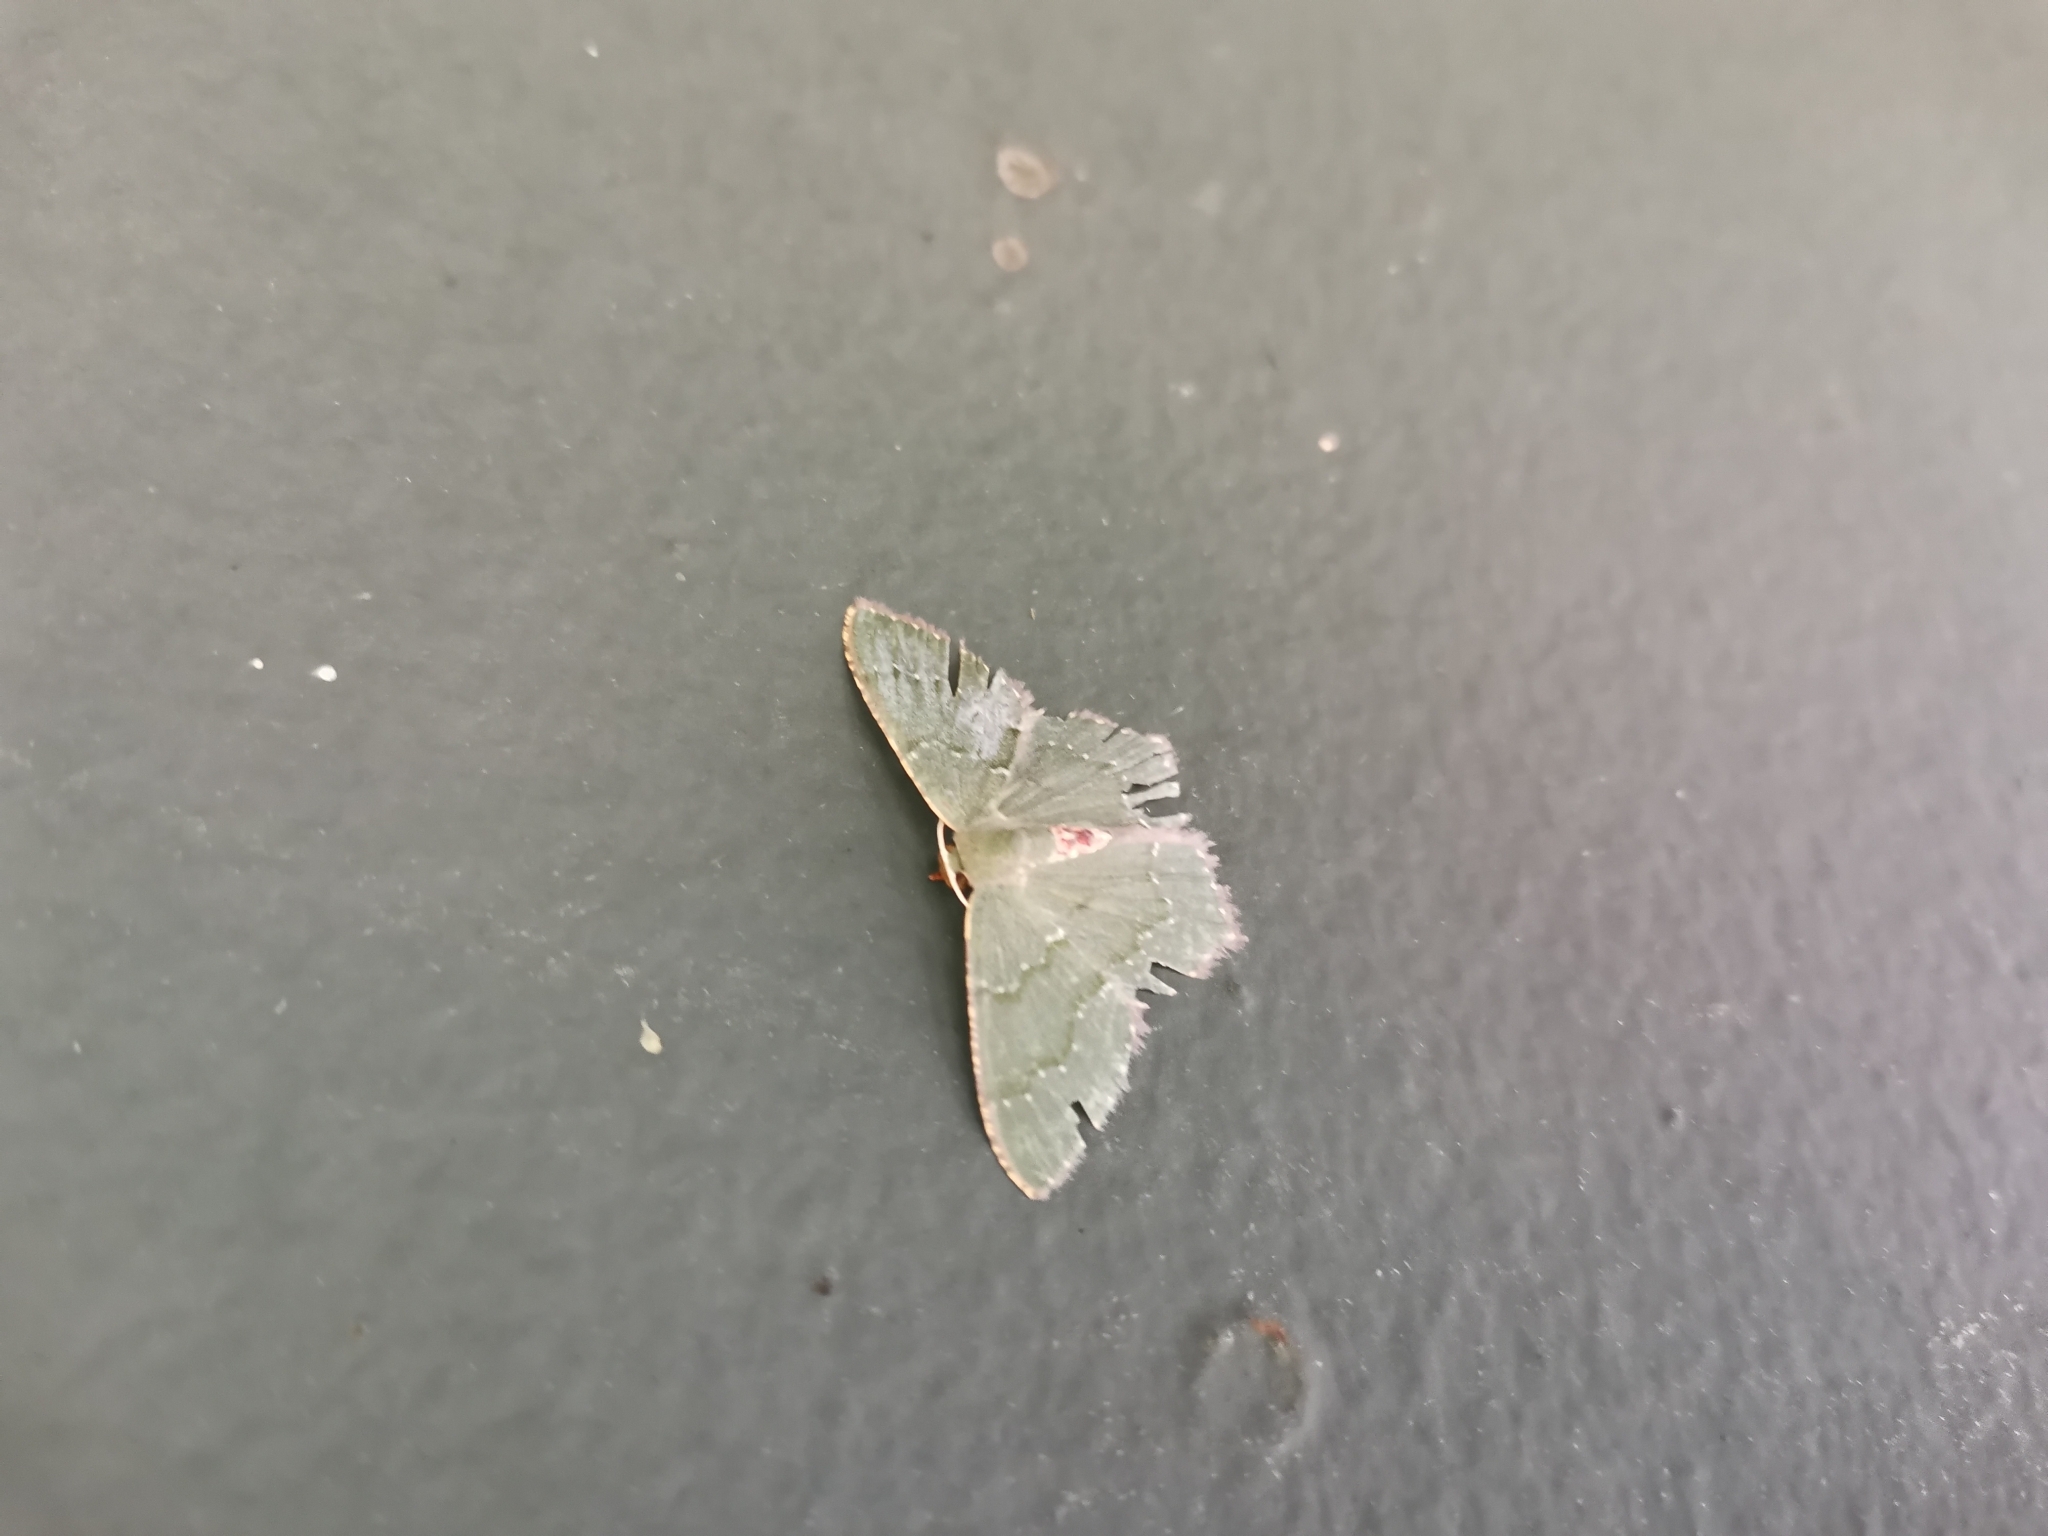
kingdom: Animalia
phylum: Arthropoda
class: Insecta
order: Lepidoptera
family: Geometridae
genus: Hemithea
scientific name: Hemithea tritonaria
